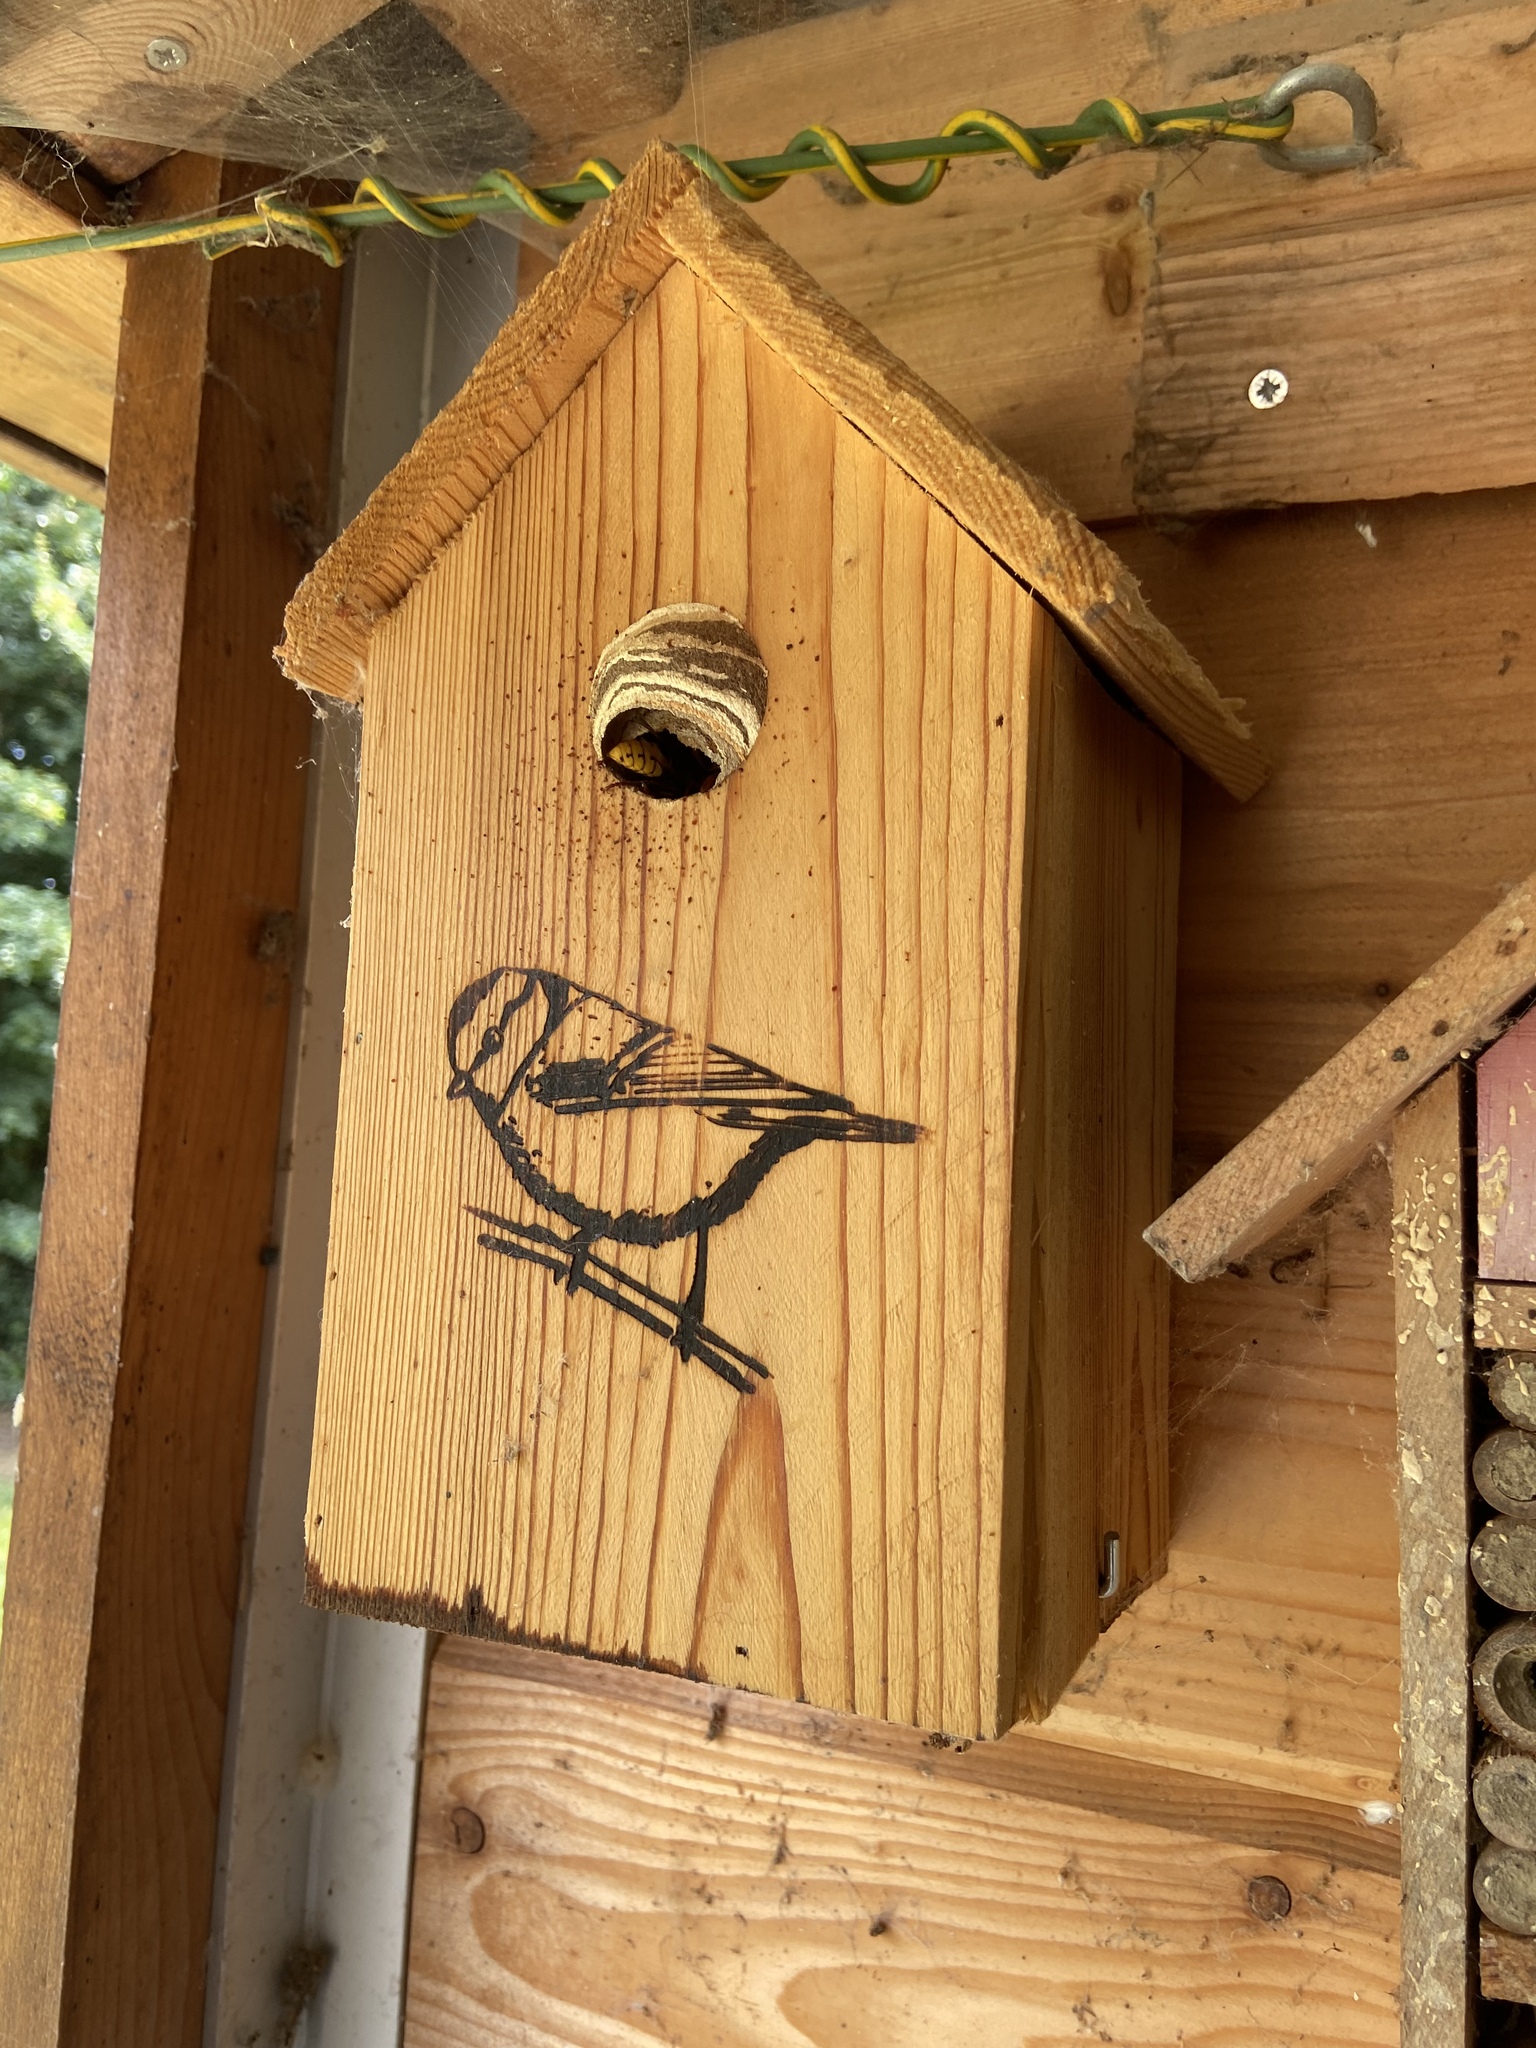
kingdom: Animalia
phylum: Arthropoda
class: Insecta
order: Hymenoptera
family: Vespidae
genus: Vespa
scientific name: Vespa crabro
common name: Hornet
